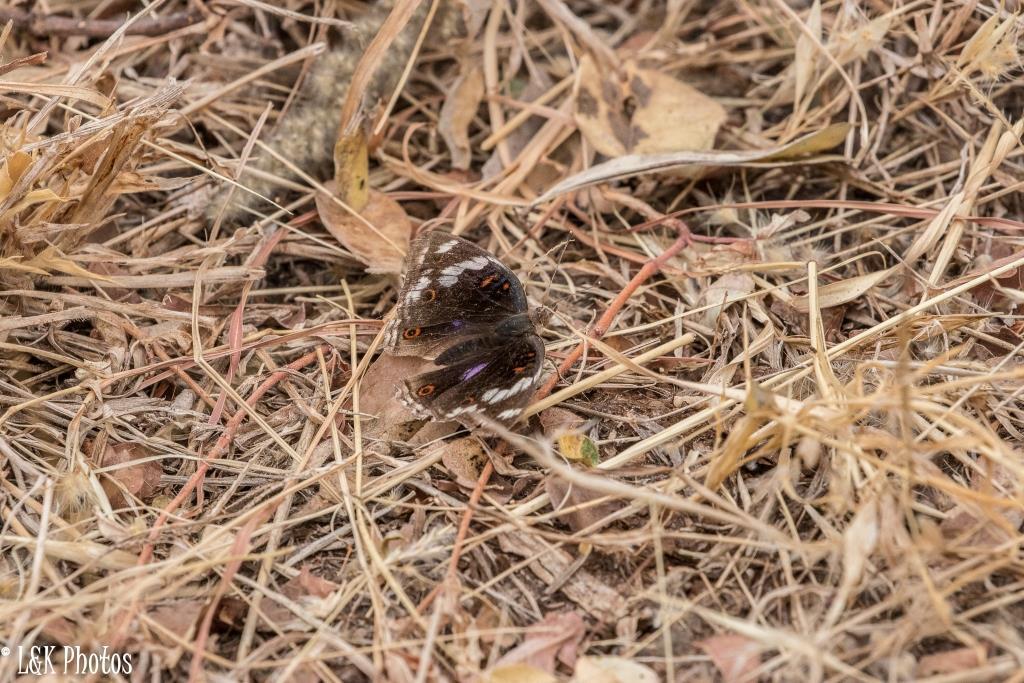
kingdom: Animalia
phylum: Arthropoda
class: Insecta
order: Lepidoptera
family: Nymphalidae
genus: Junonia
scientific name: Junonia oenone
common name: Dark blue pansy
